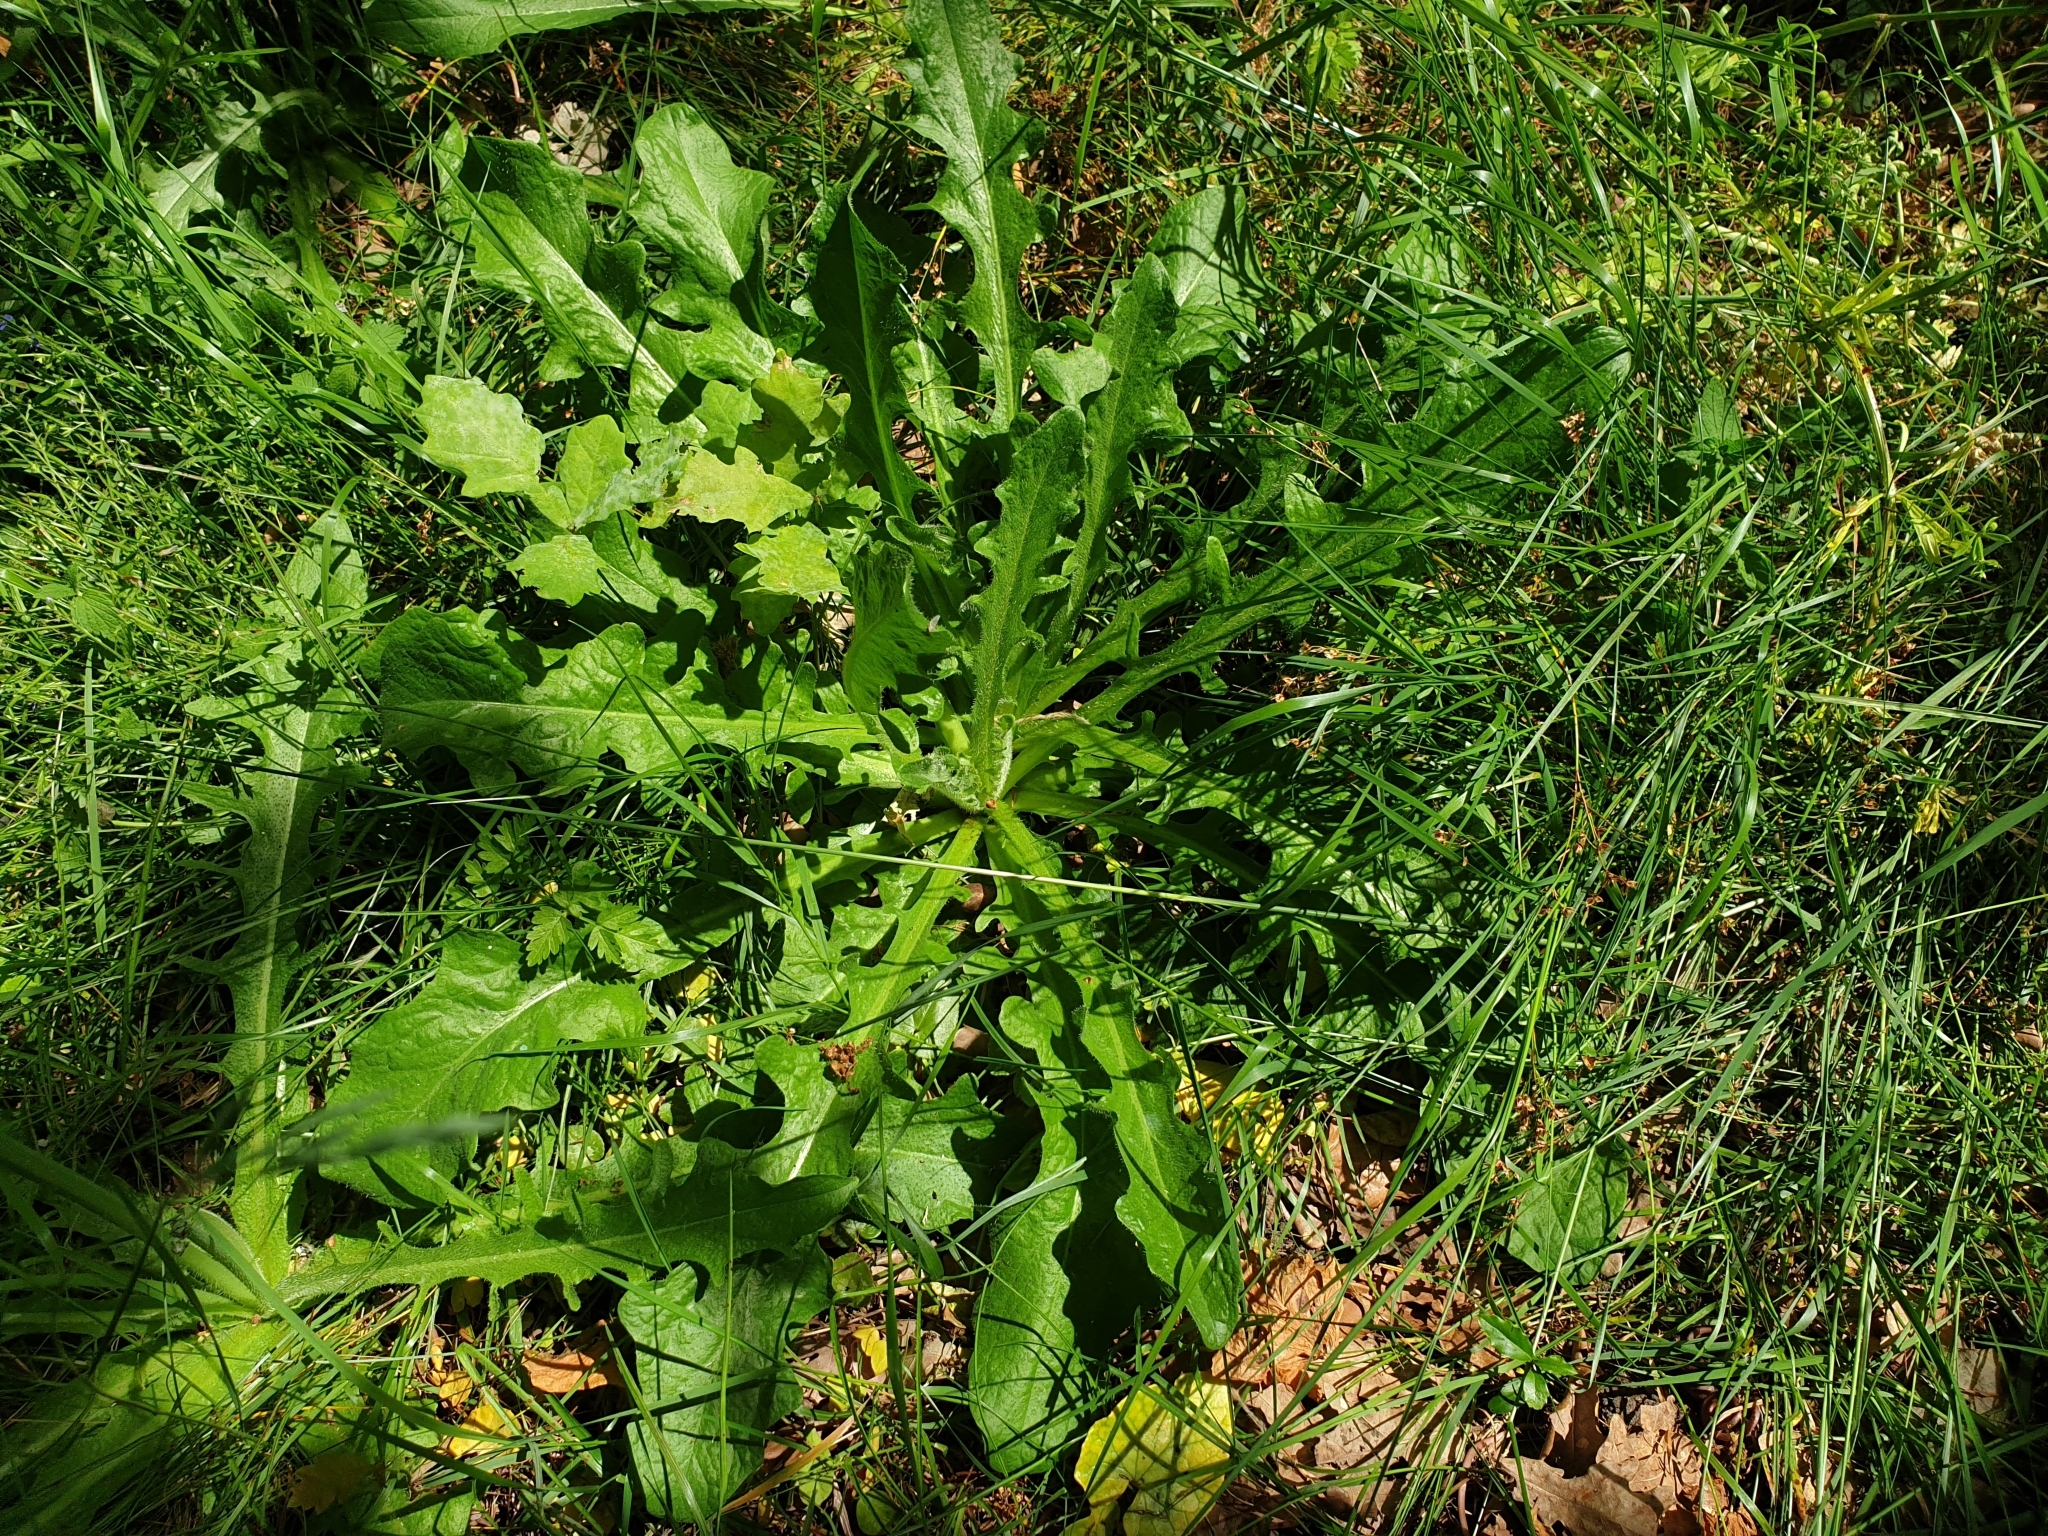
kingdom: Plantae
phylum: Tracheophyta
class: Magnoliopsida
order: Asterales
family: Asteraceae
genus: Hypochaeris
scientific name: Hypochaeris radicata
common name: Flatweed
